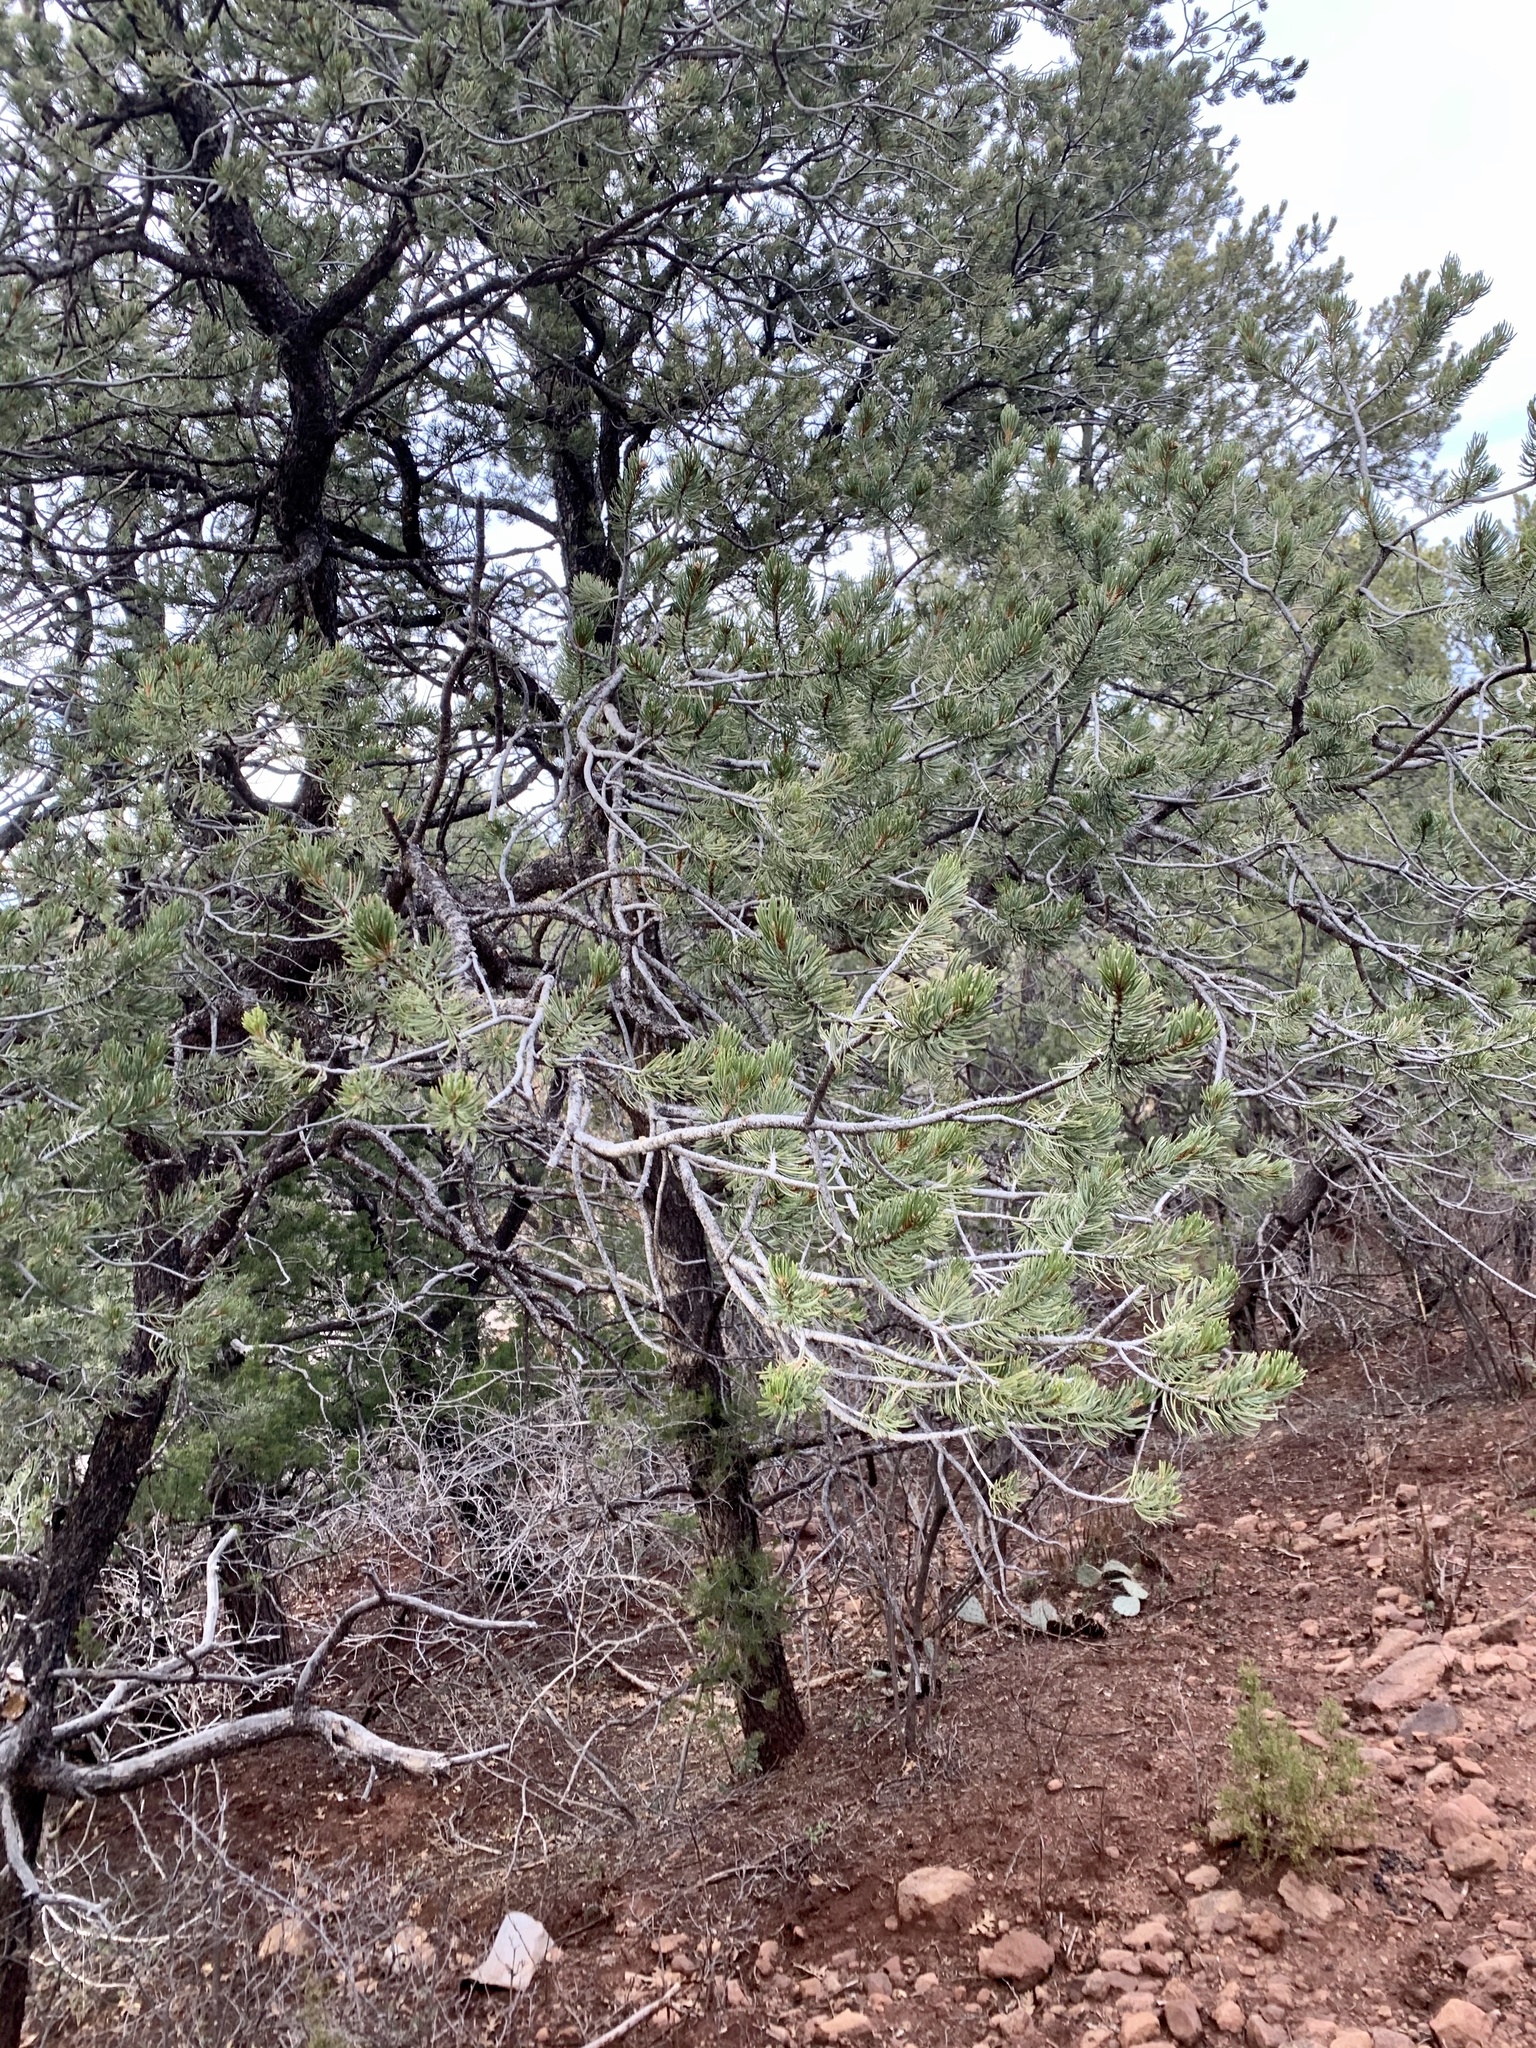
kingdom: Plantae
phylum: Tracheophyta
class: Pinopsida
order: Pinales
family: Pinaceae
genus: Pinus
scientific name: Pinus edulis
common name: Colorado pinyon
